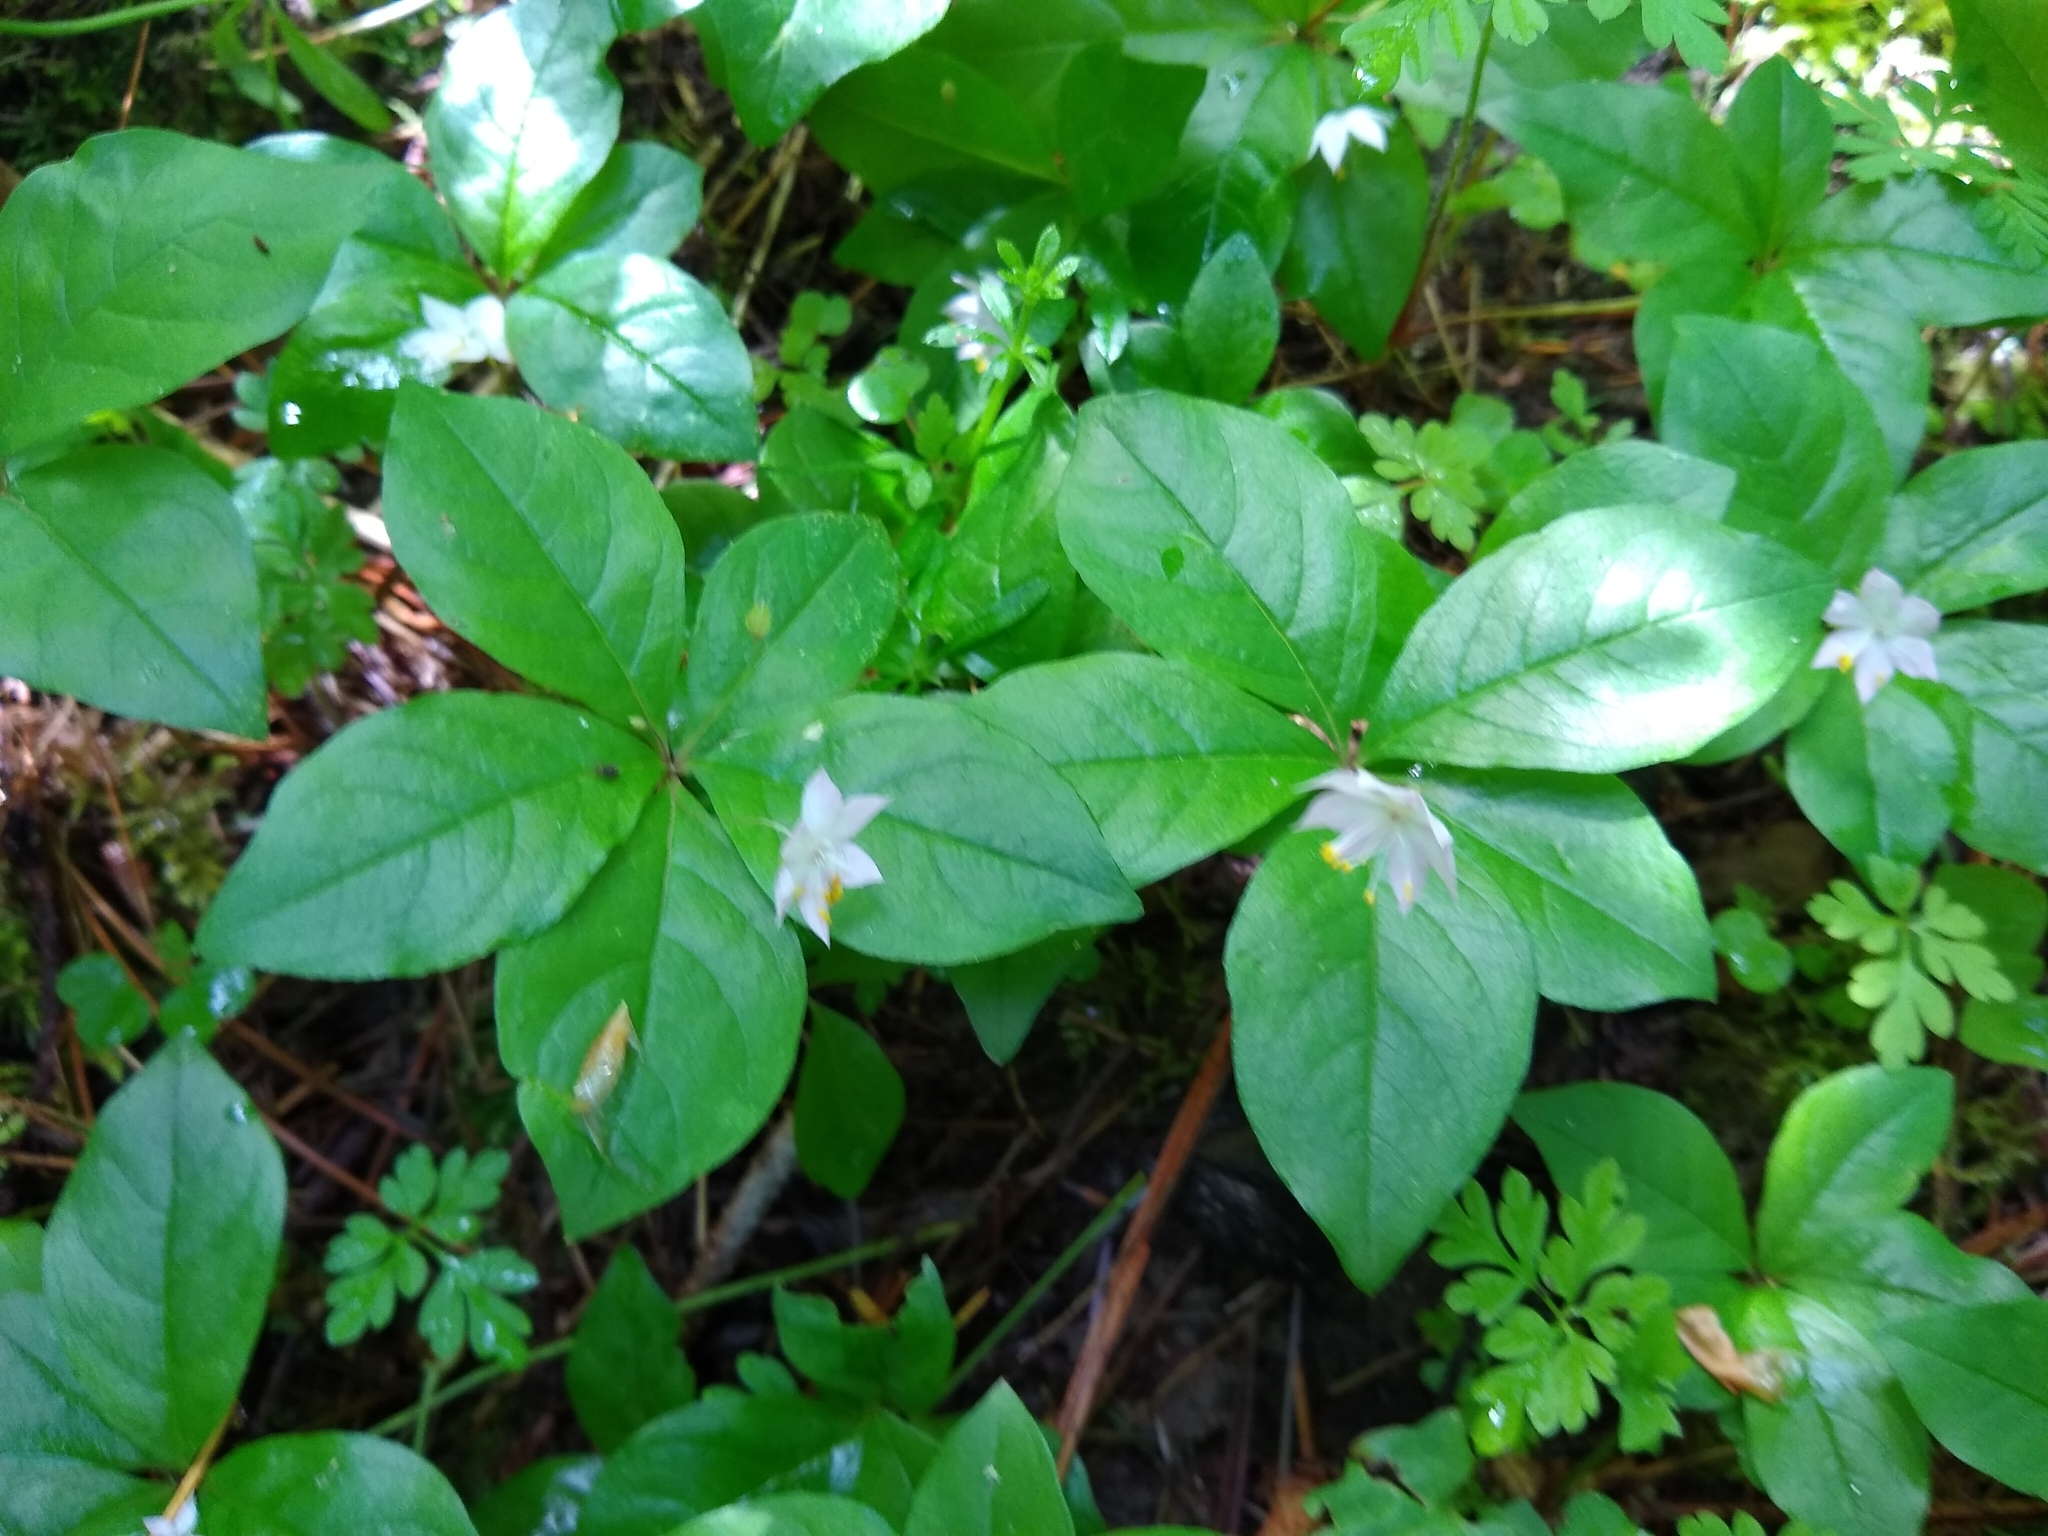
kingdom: Plantae
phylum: Tracheophyta
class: Magnoliopsida
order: Ericales
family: Primulaceae
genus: Lysimachia
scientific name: Lysimachia latifolia
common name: Pacific starflower
